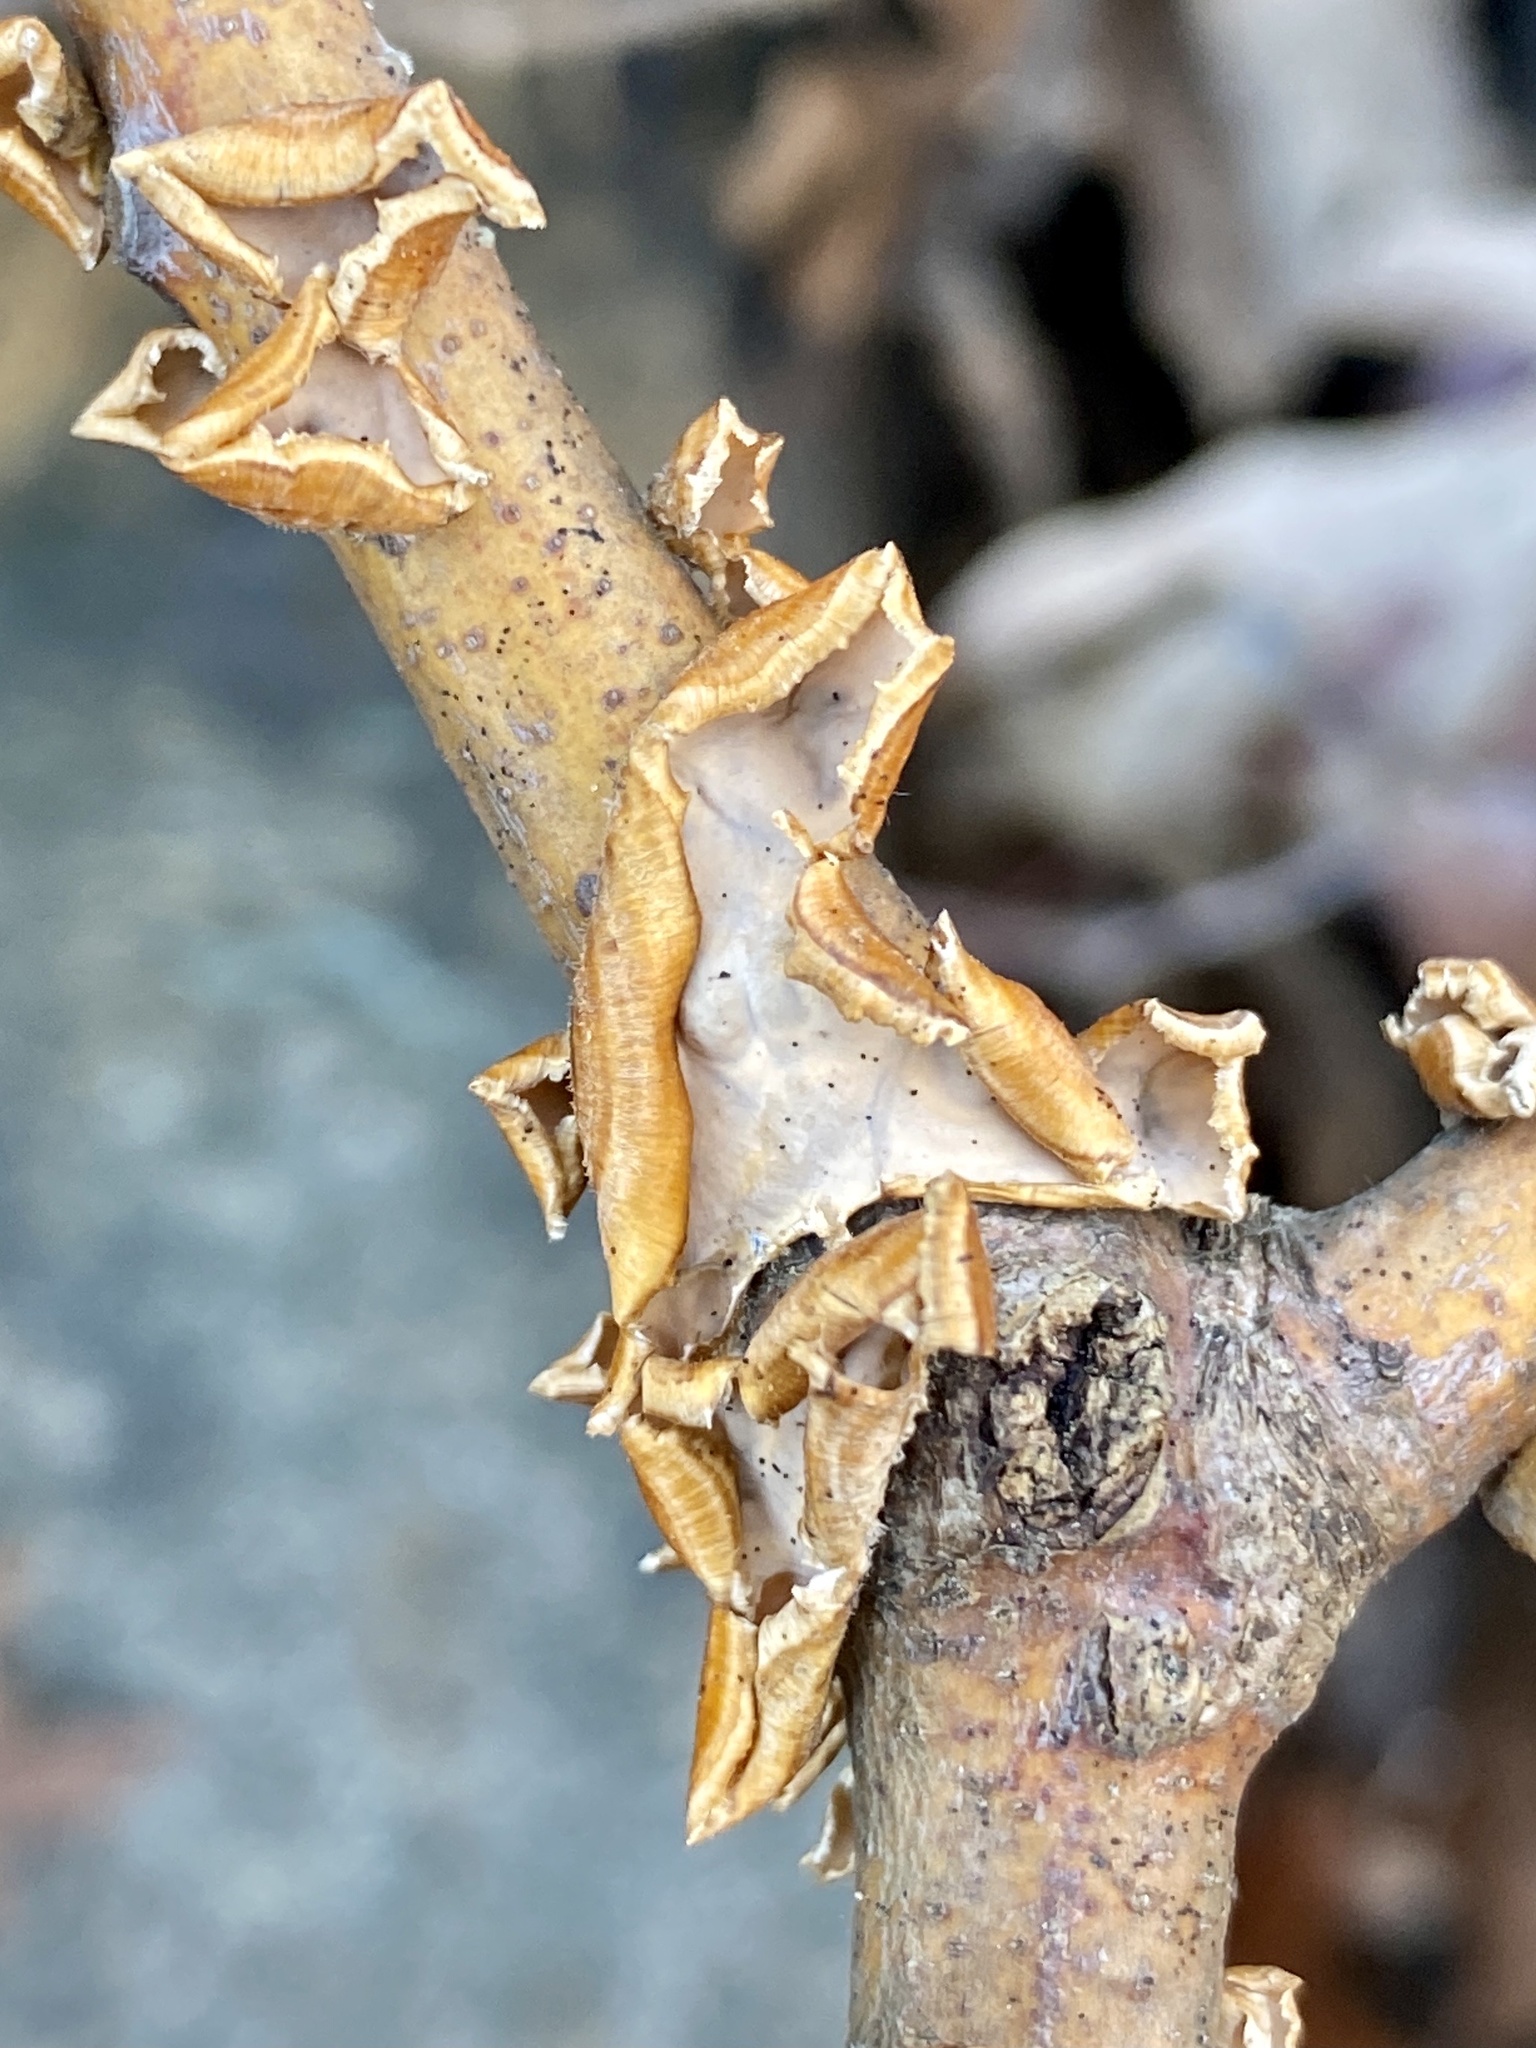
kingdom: Fungi
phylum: Basidiomycota
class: Agaricomycetes
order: Russulales
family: Stereaceae
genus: Stereum
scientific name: Stereum complicatum
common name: Crowded parchment
